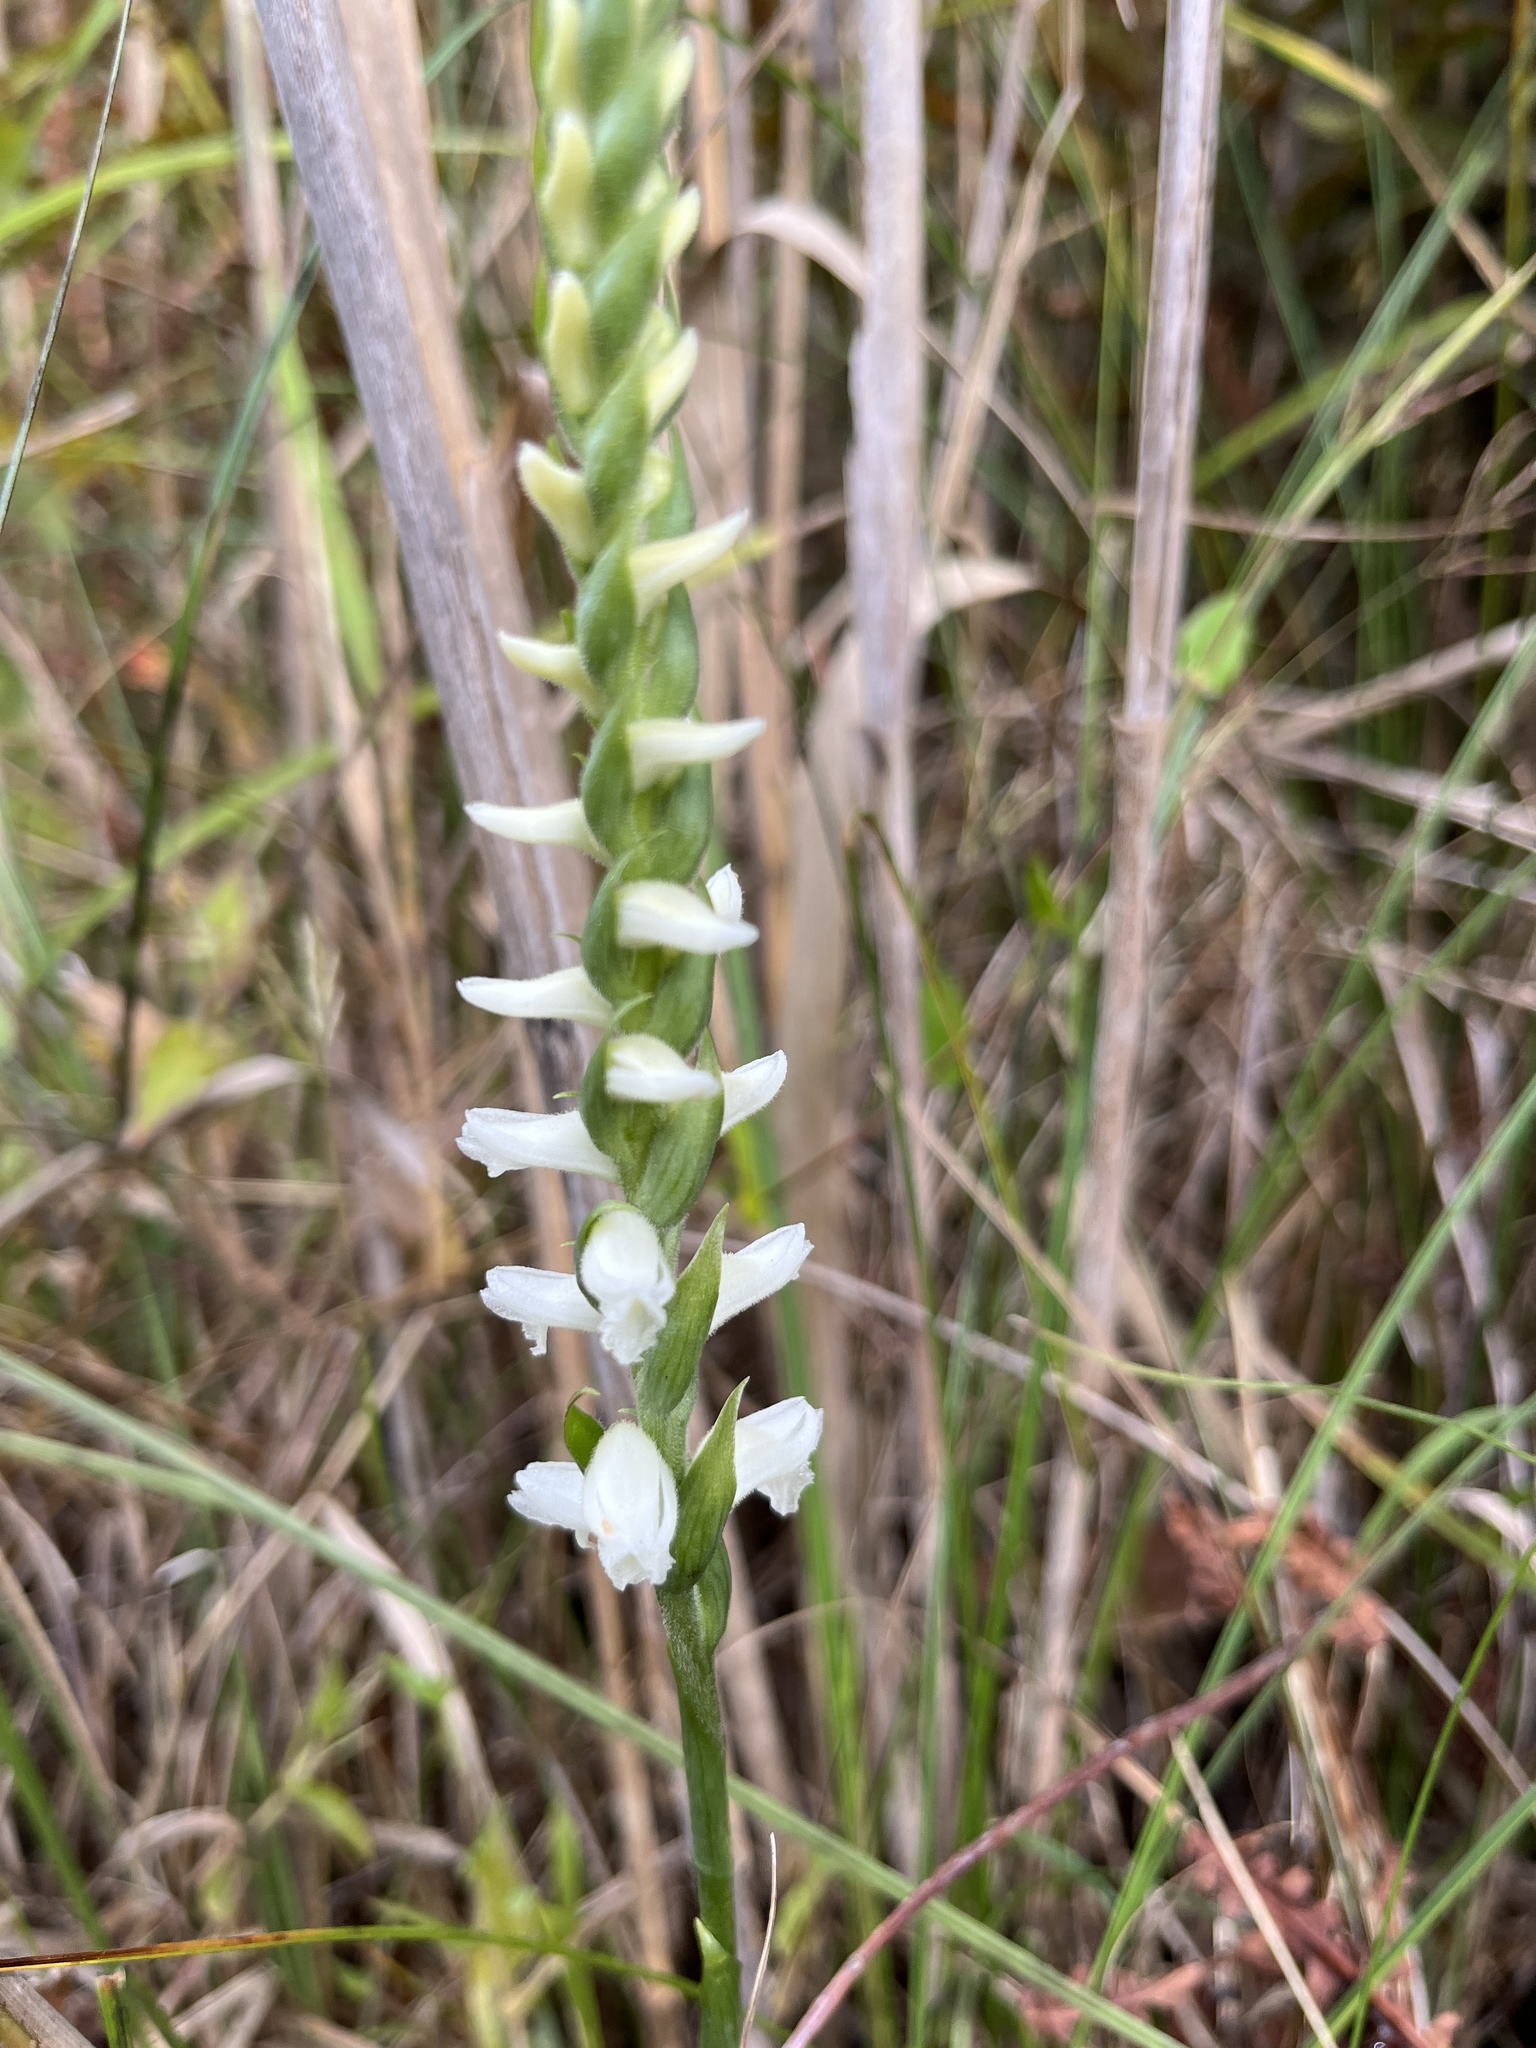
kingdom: Plantae
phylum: Tracheophyta
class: Liliopsida
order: Asparagales
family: Orchidaceae
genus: Spiranthes
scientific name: Spiranthes cernua
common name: Dropping ladies'-tresses
